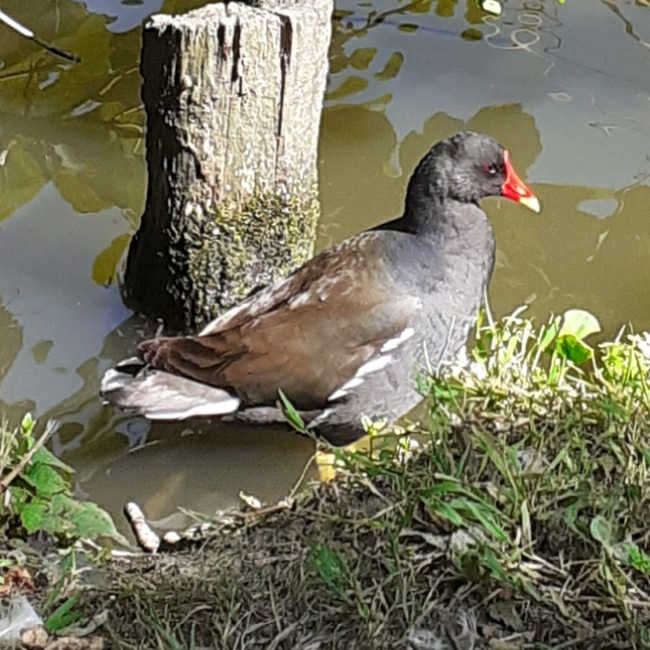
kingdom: Animalia
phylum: Chordata
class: Aves
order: Gruiformes
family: Rallidae
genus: Gallinula
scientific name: Gallinula chloropus
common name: Common moorhen
